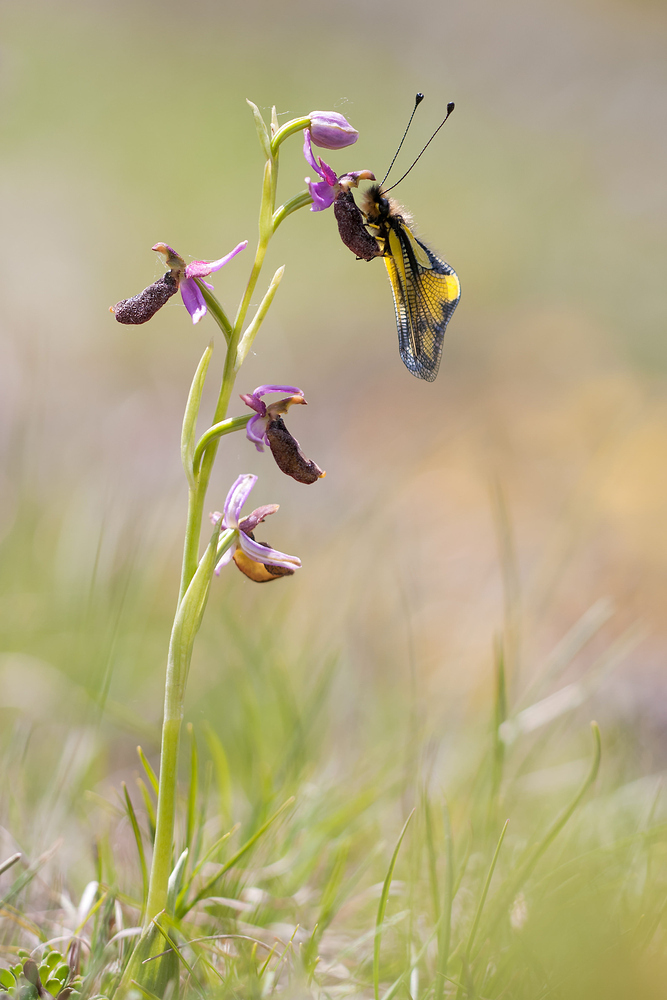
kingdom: Animalia
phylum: Arthropoda
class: Insecta
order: Neuroptera
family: Ascalaphidae
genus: Libelloides
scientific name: Libelloides coccajus
